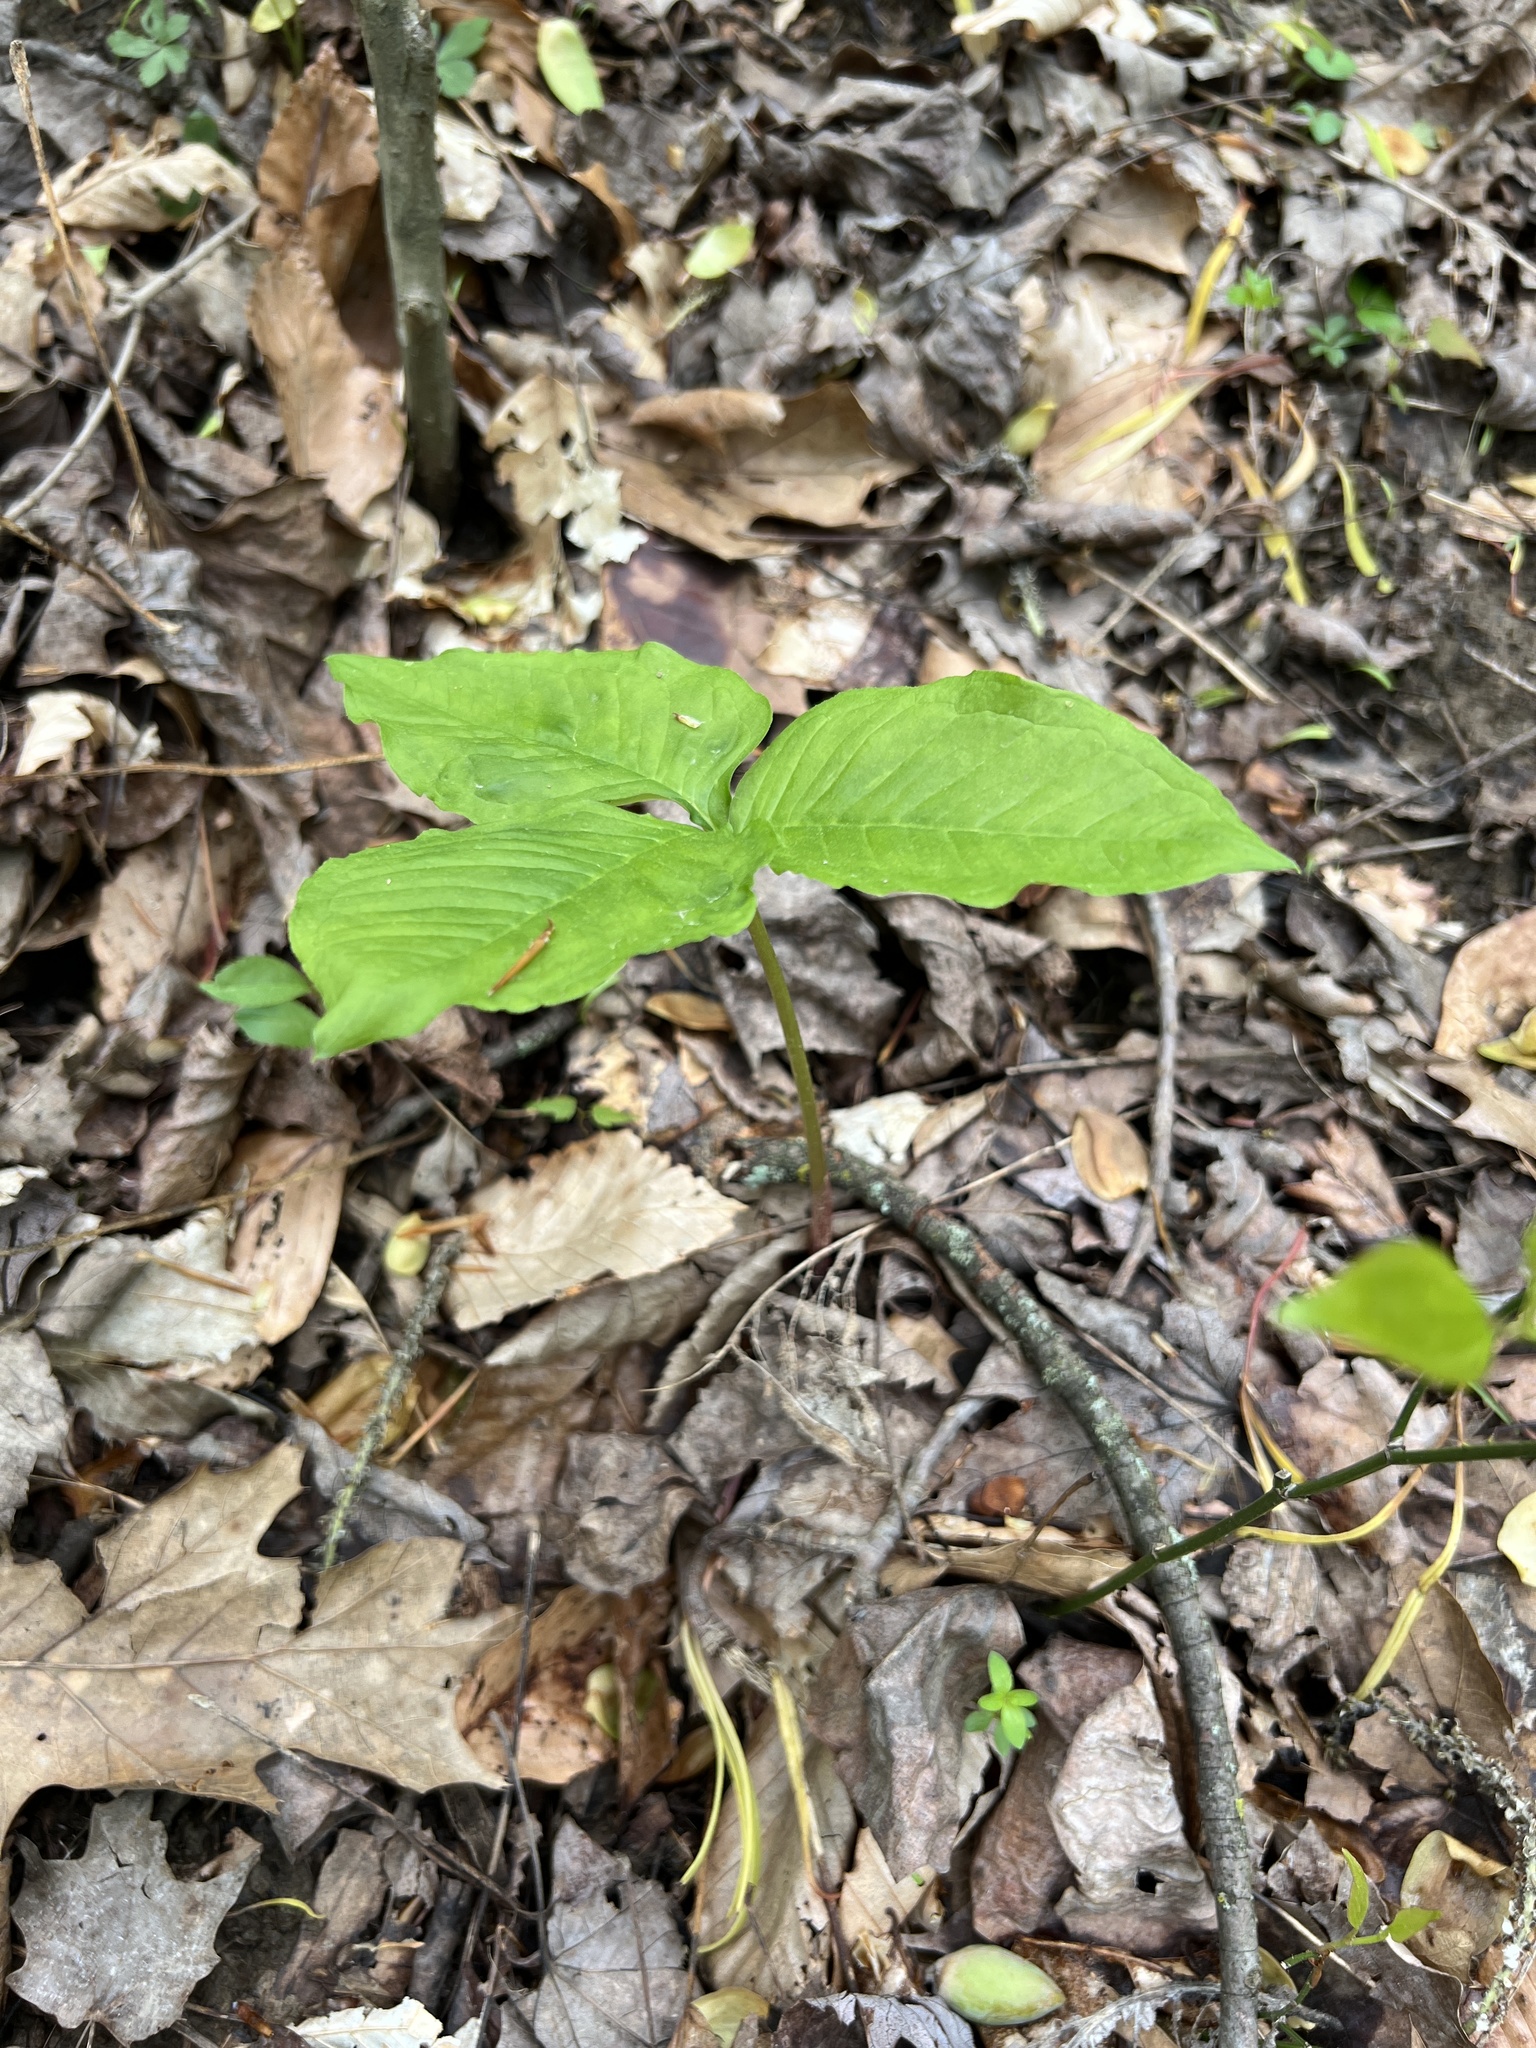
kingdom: Plantae
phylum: Tracheophyta
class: Liliopsida
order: Alismatales
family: Araceae
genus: Arisaema
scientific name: Arisaema triphyllum
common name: Jack-in-the-pulpit
